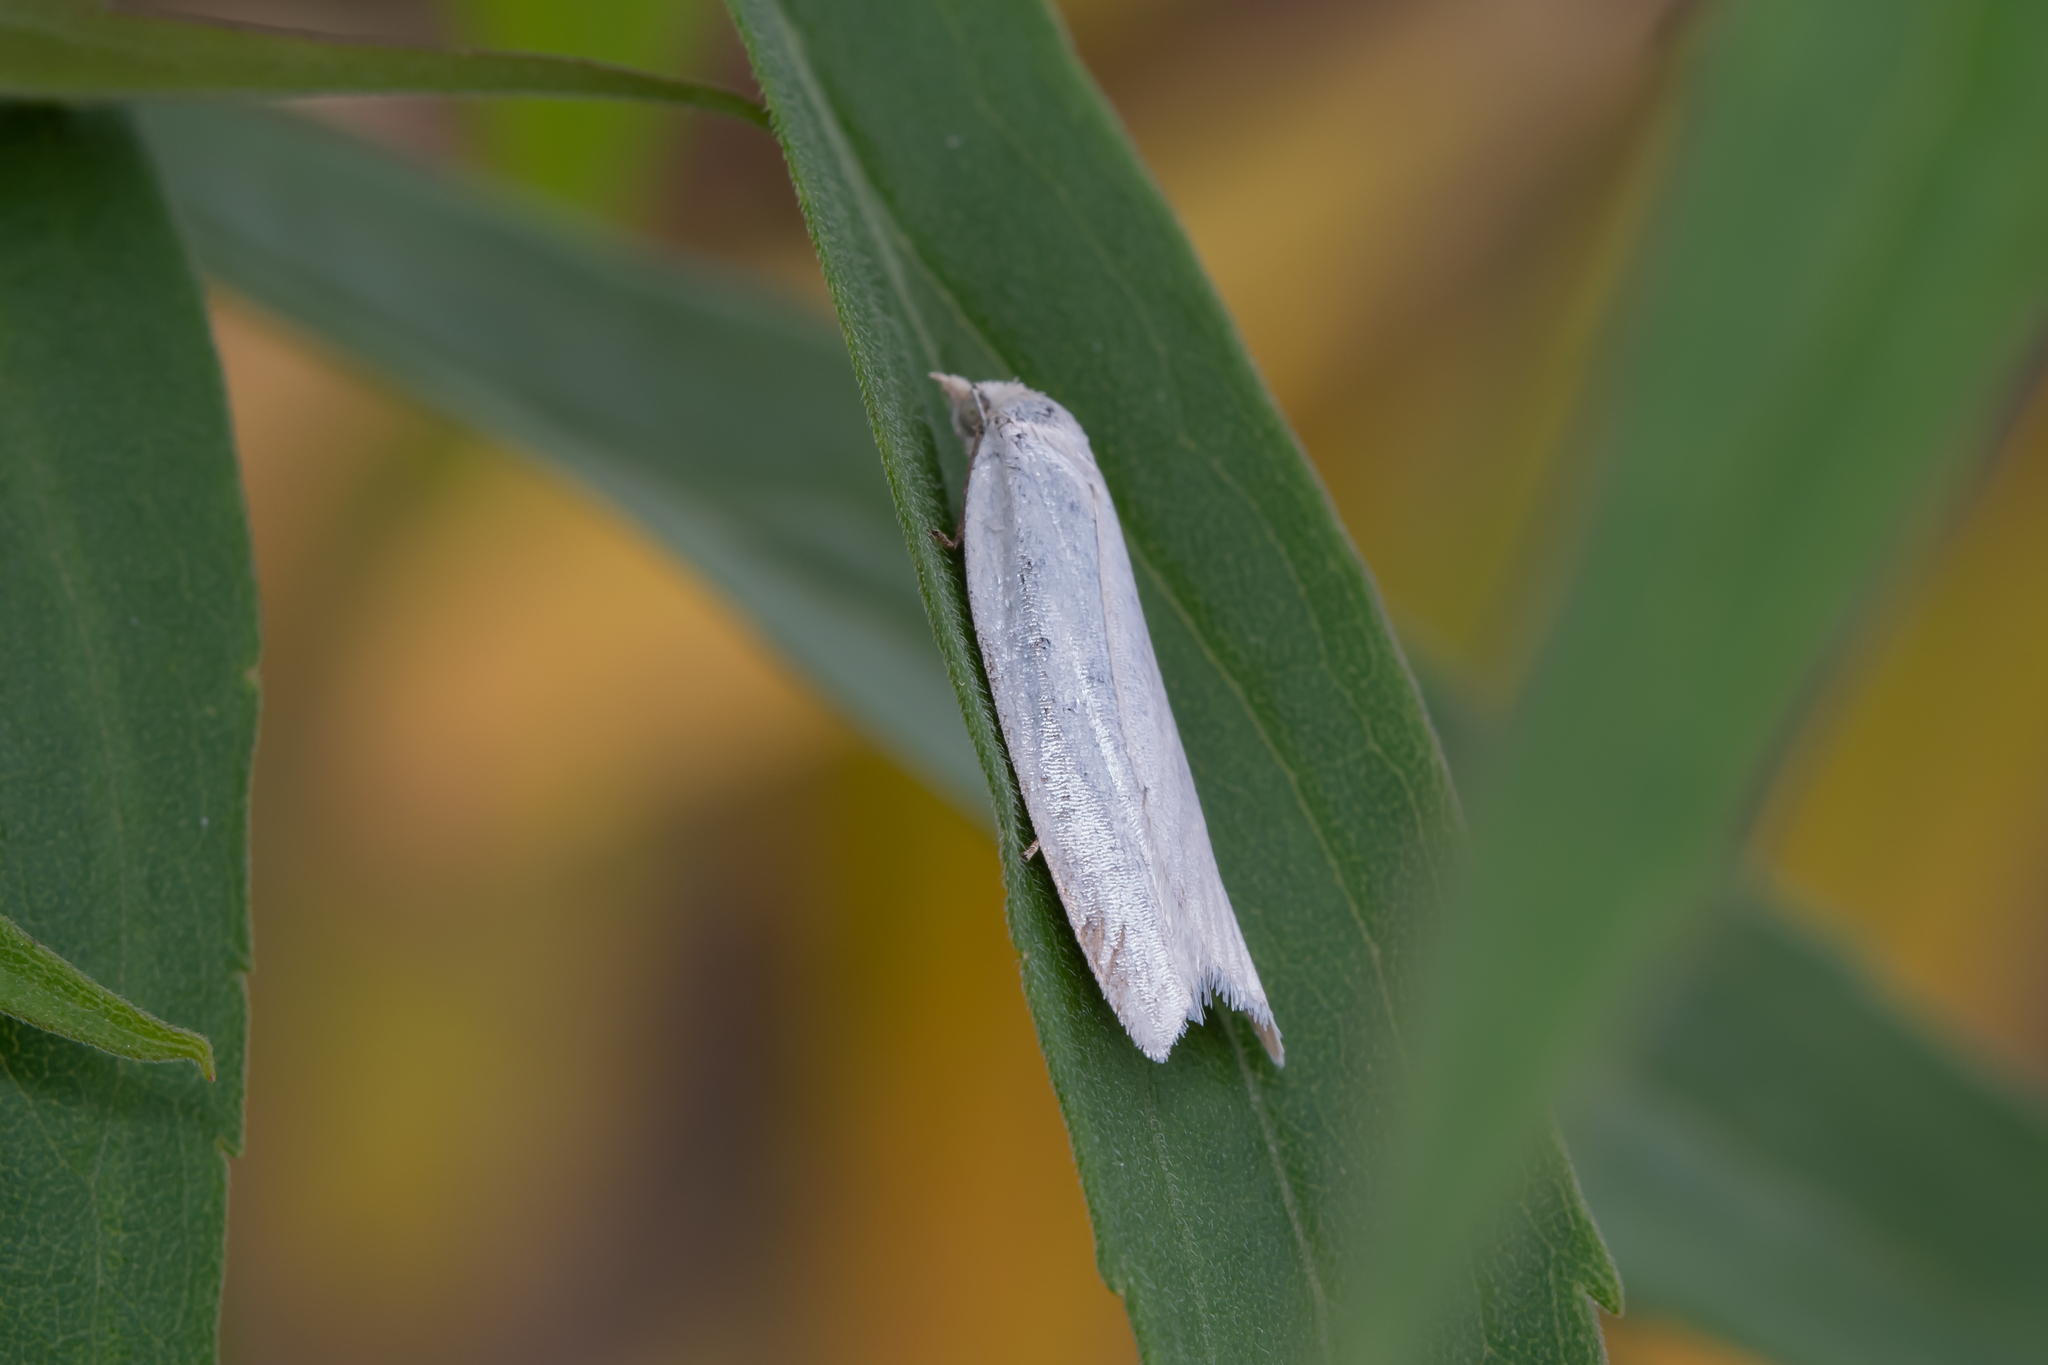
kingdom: Animalia
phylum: Arthropoda
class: Insecta
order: Lepidoptera
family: Tortricidae
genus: Eana
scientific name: Eana argentana
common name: Silver shade
